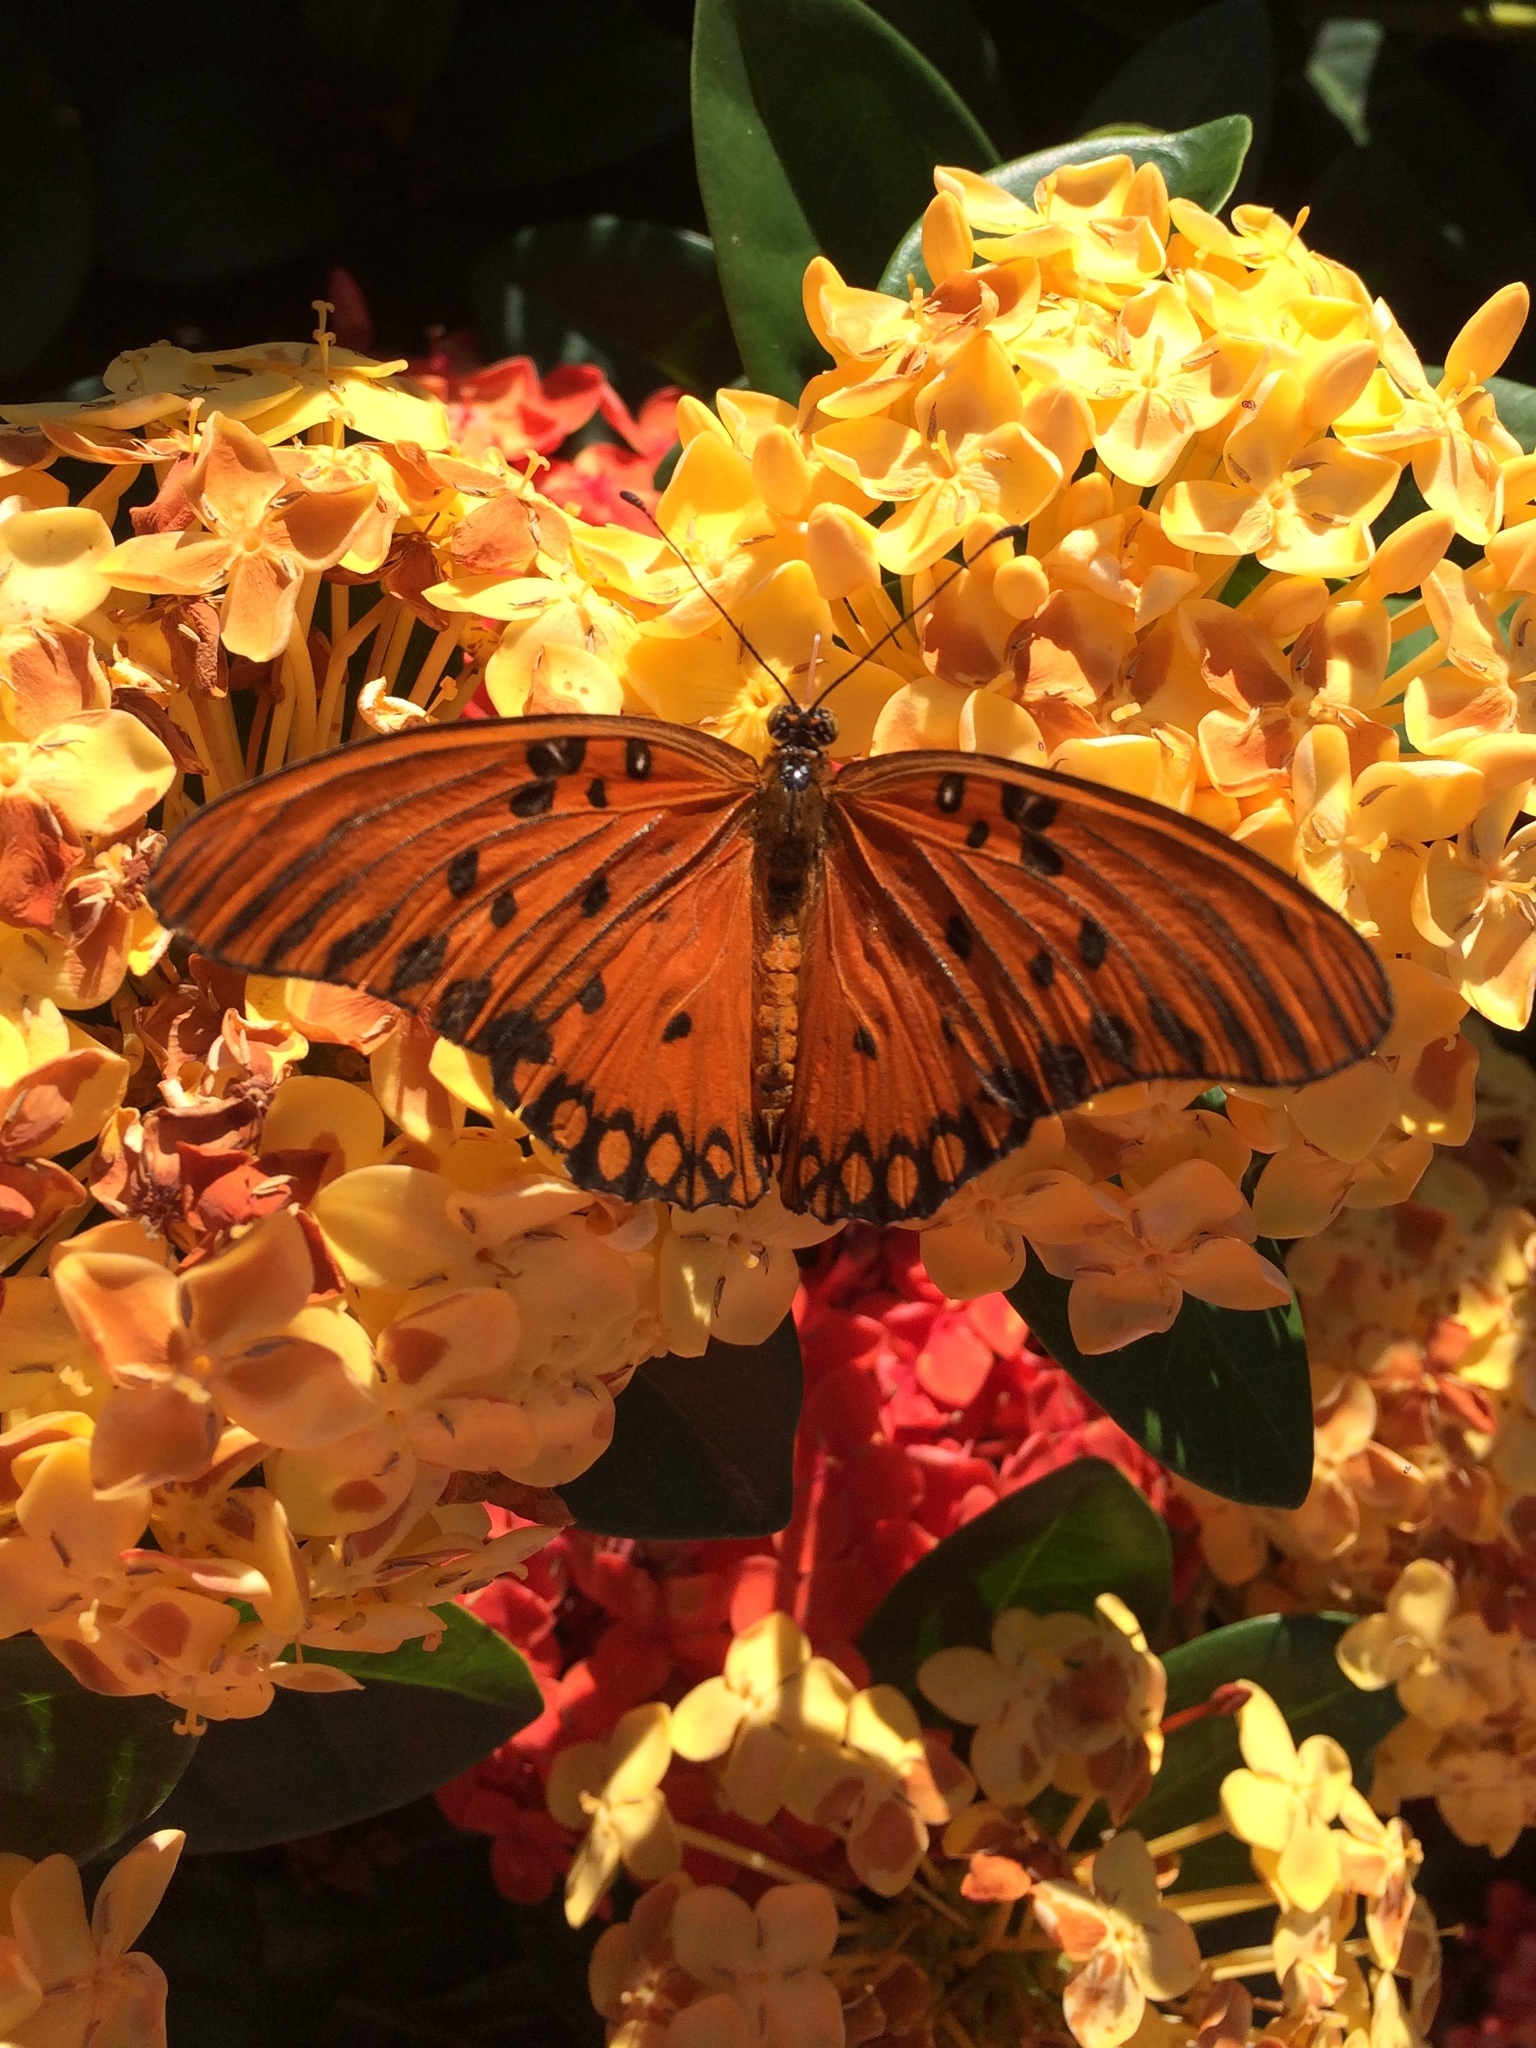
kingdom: Animalia
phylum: Arthropoda
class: Insecta
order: Lepidoptera
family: Nymphalidae
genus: Dione
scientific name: Dione vanillae
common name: Gulf fritillary
